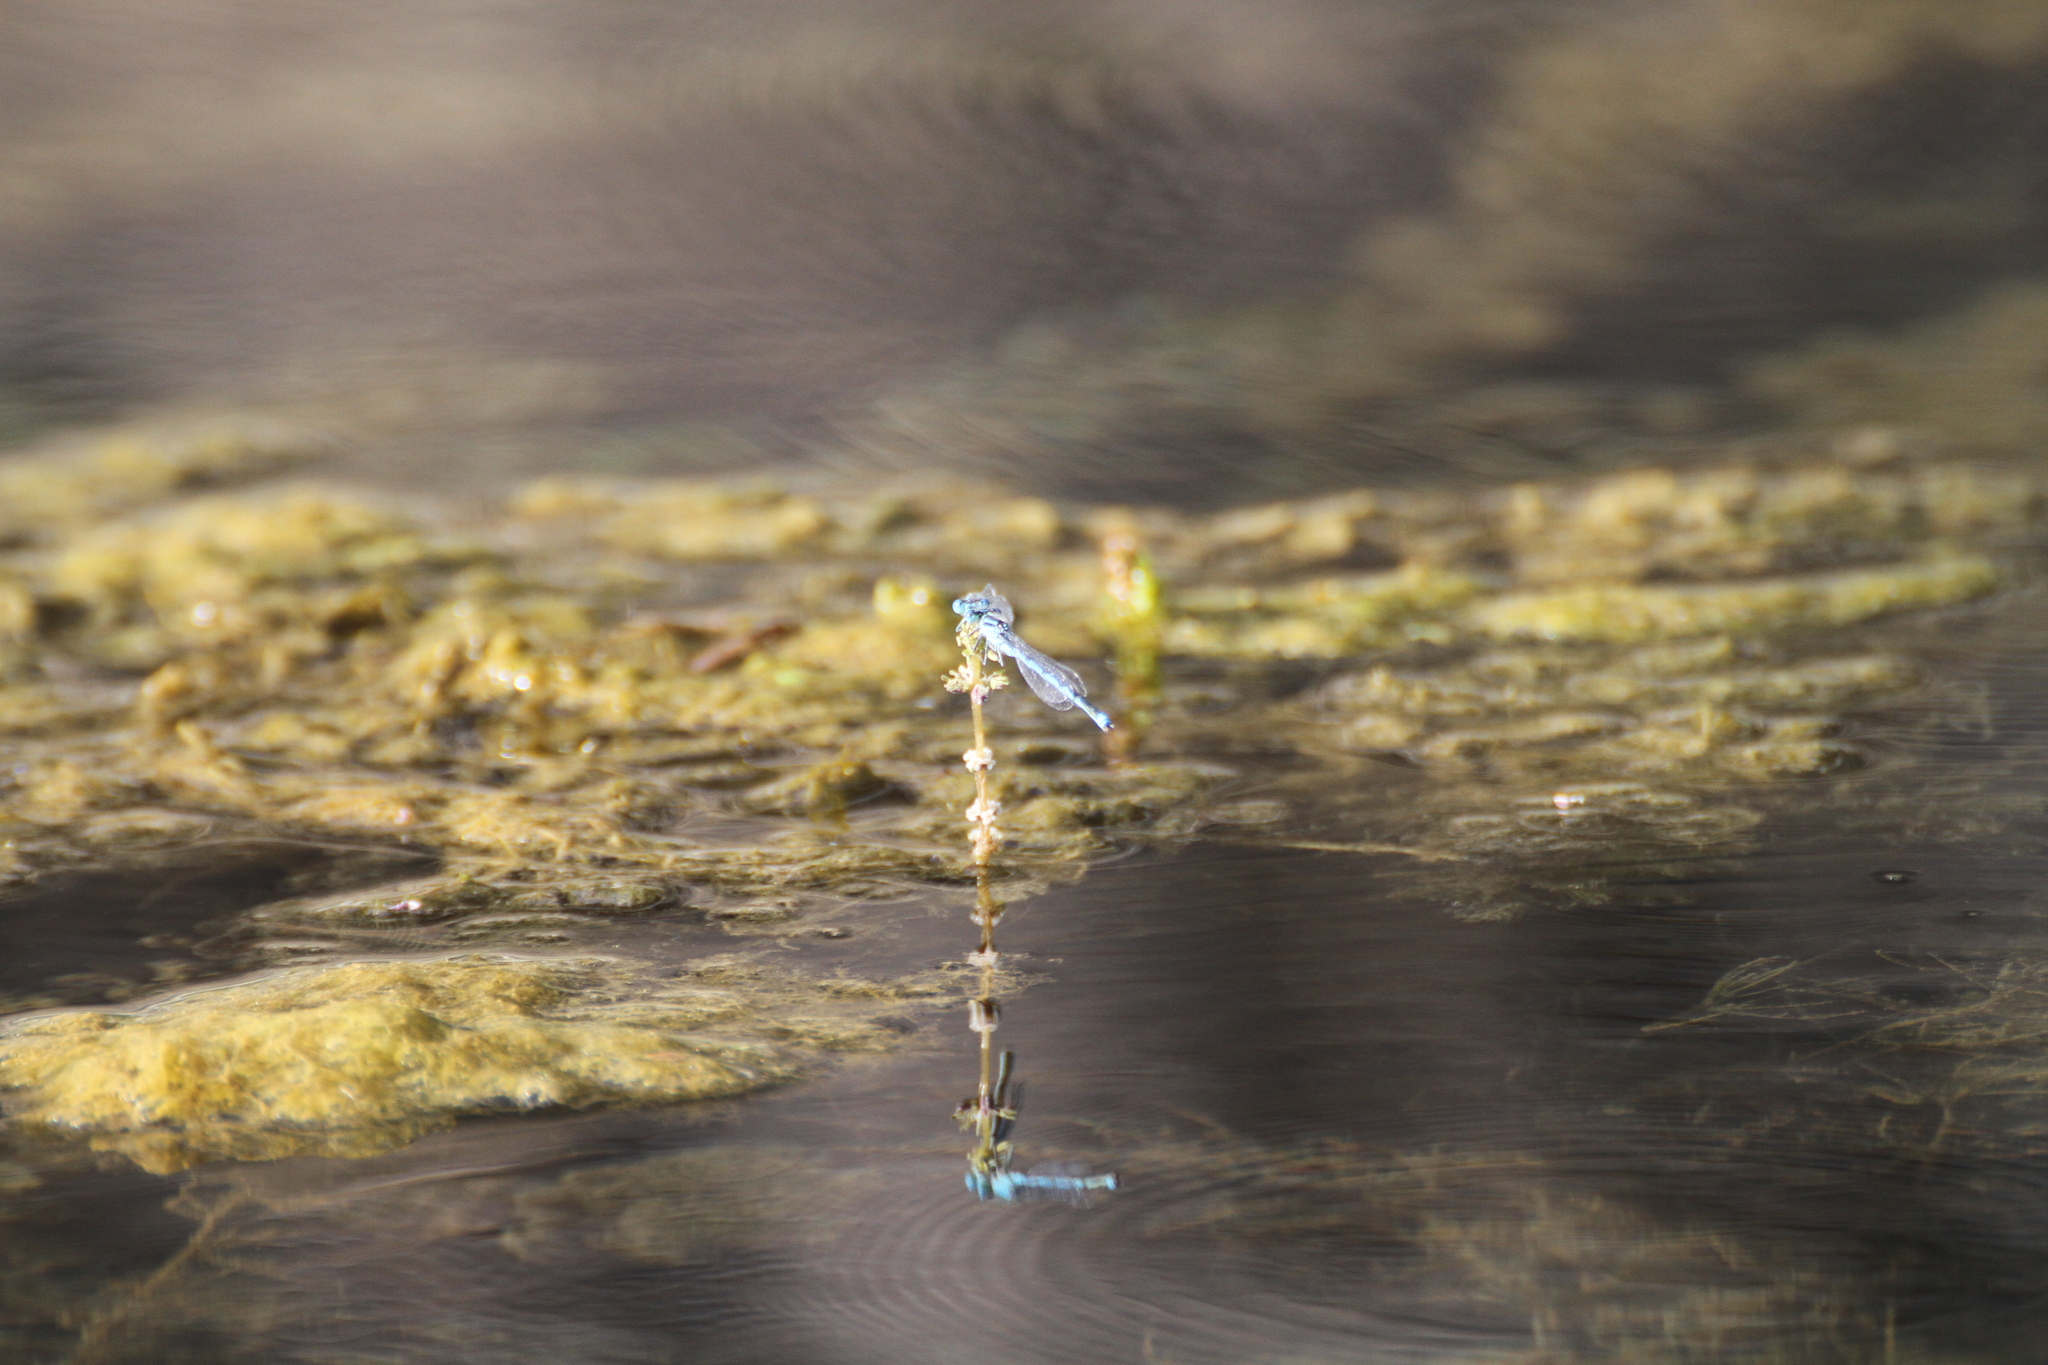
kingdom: Animalia
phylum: Arthropoda
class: Insecta
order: Odonata
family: Coenagrionidae
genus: Erythromma
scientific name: Erythromma lindenii
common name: Blue-eye
